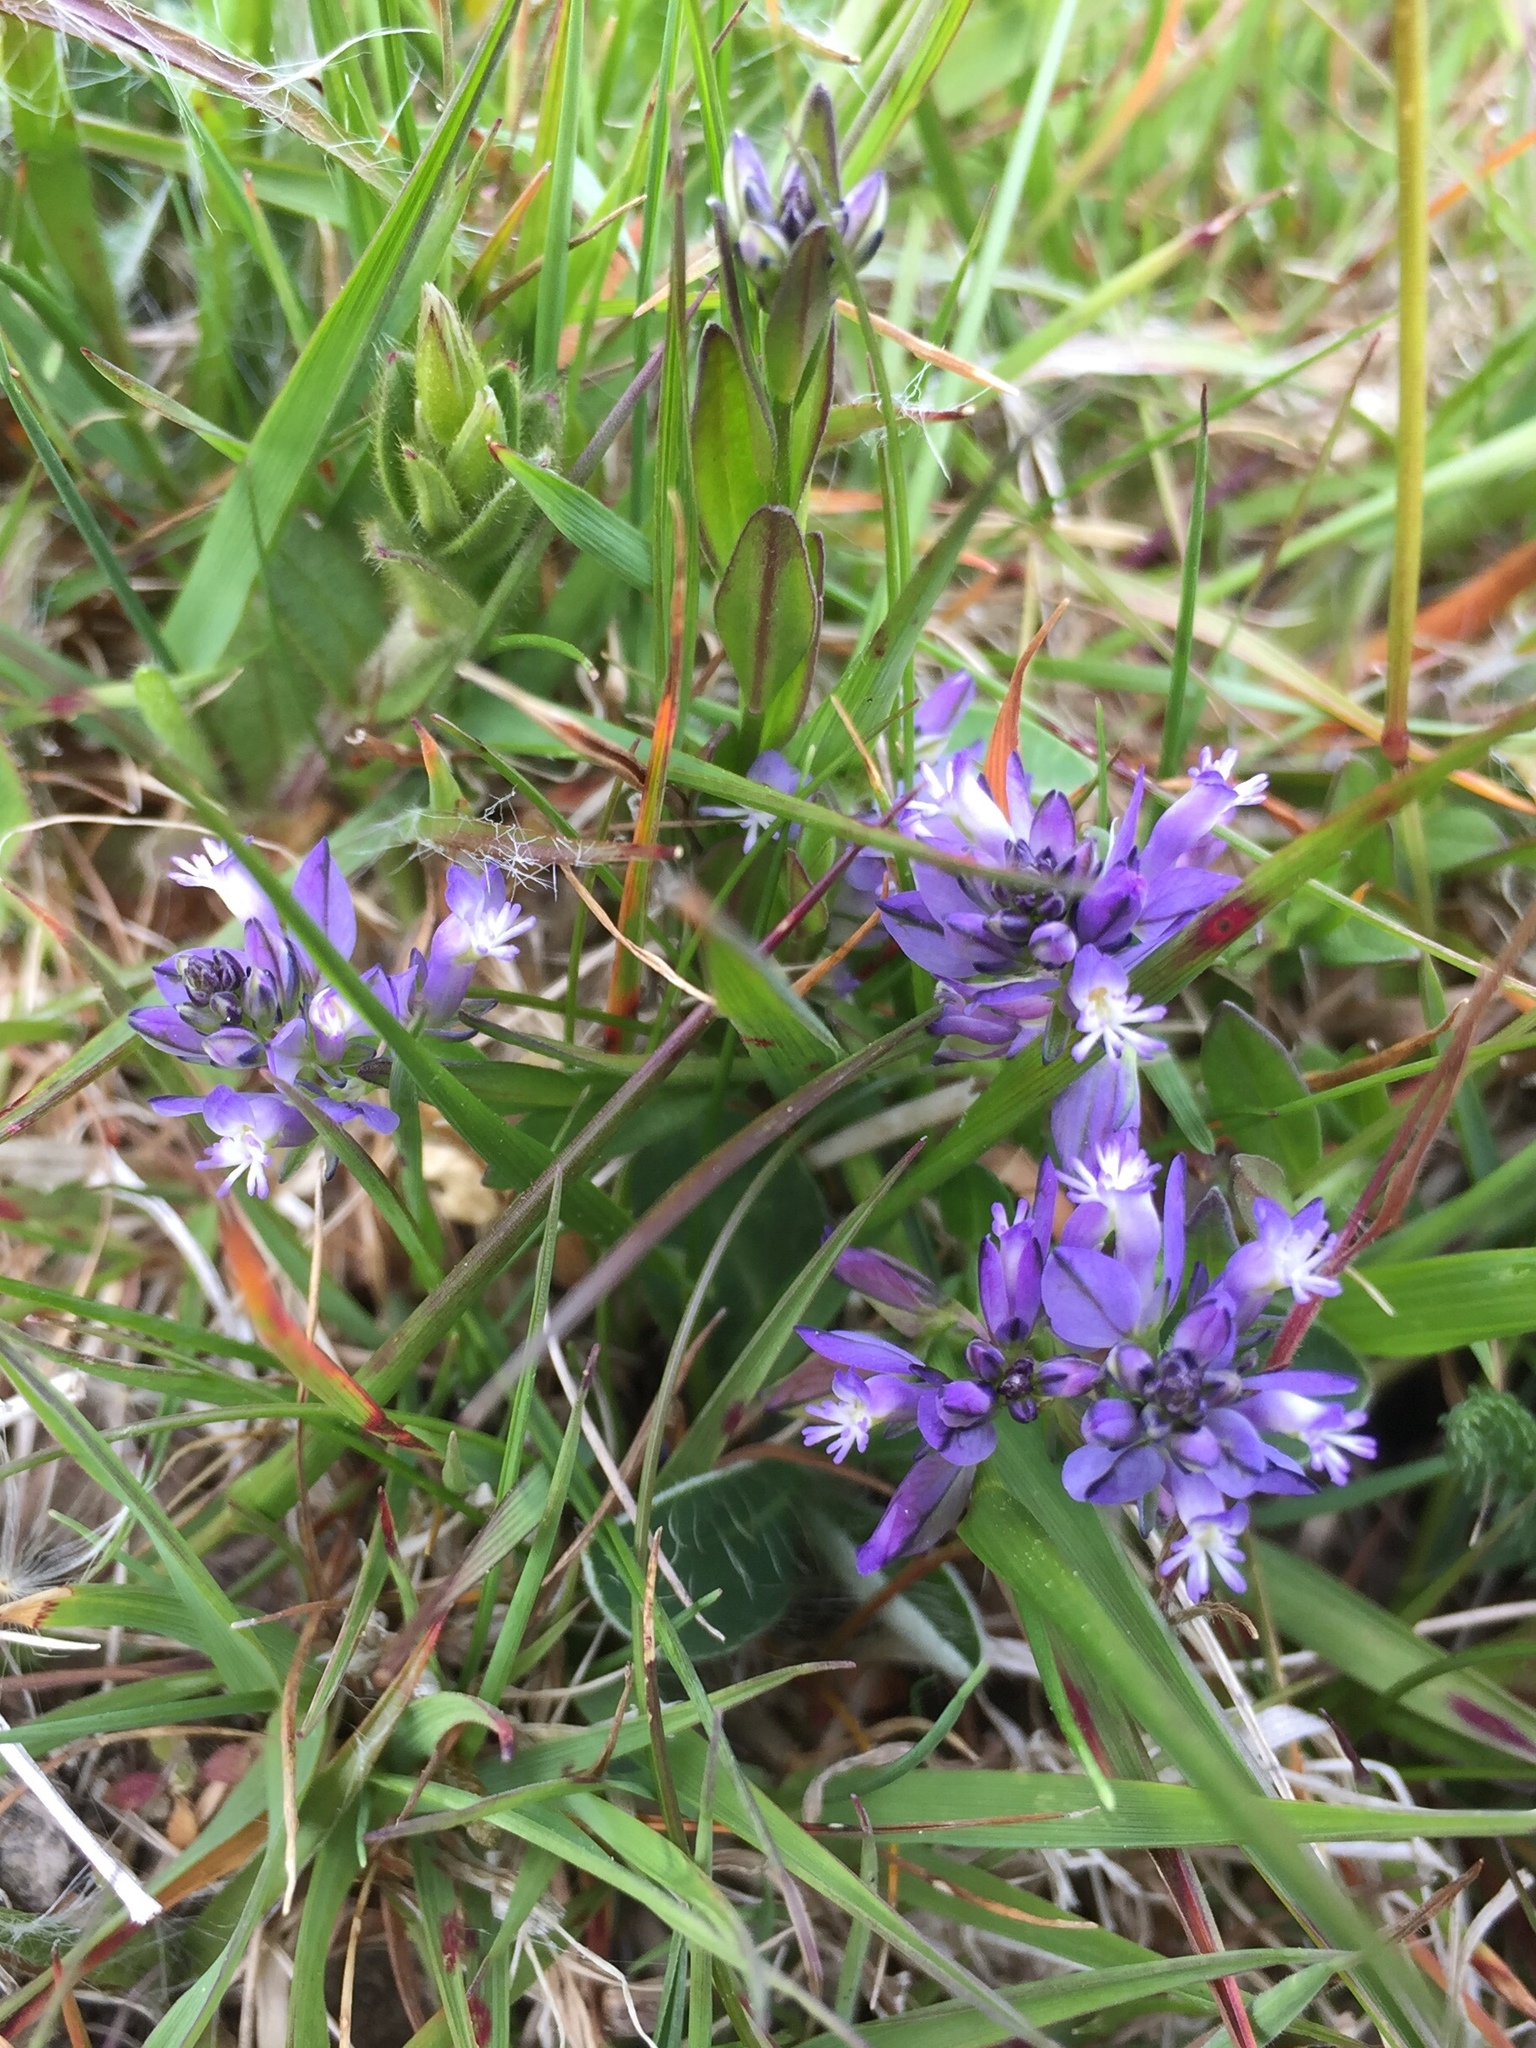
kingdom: Plantae
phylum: Tracheophyta
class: Magnoliopsida
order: Fabales
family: Polygalaceae
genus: Polygala
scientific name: Polygala vulgaris
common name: Common milkwort
